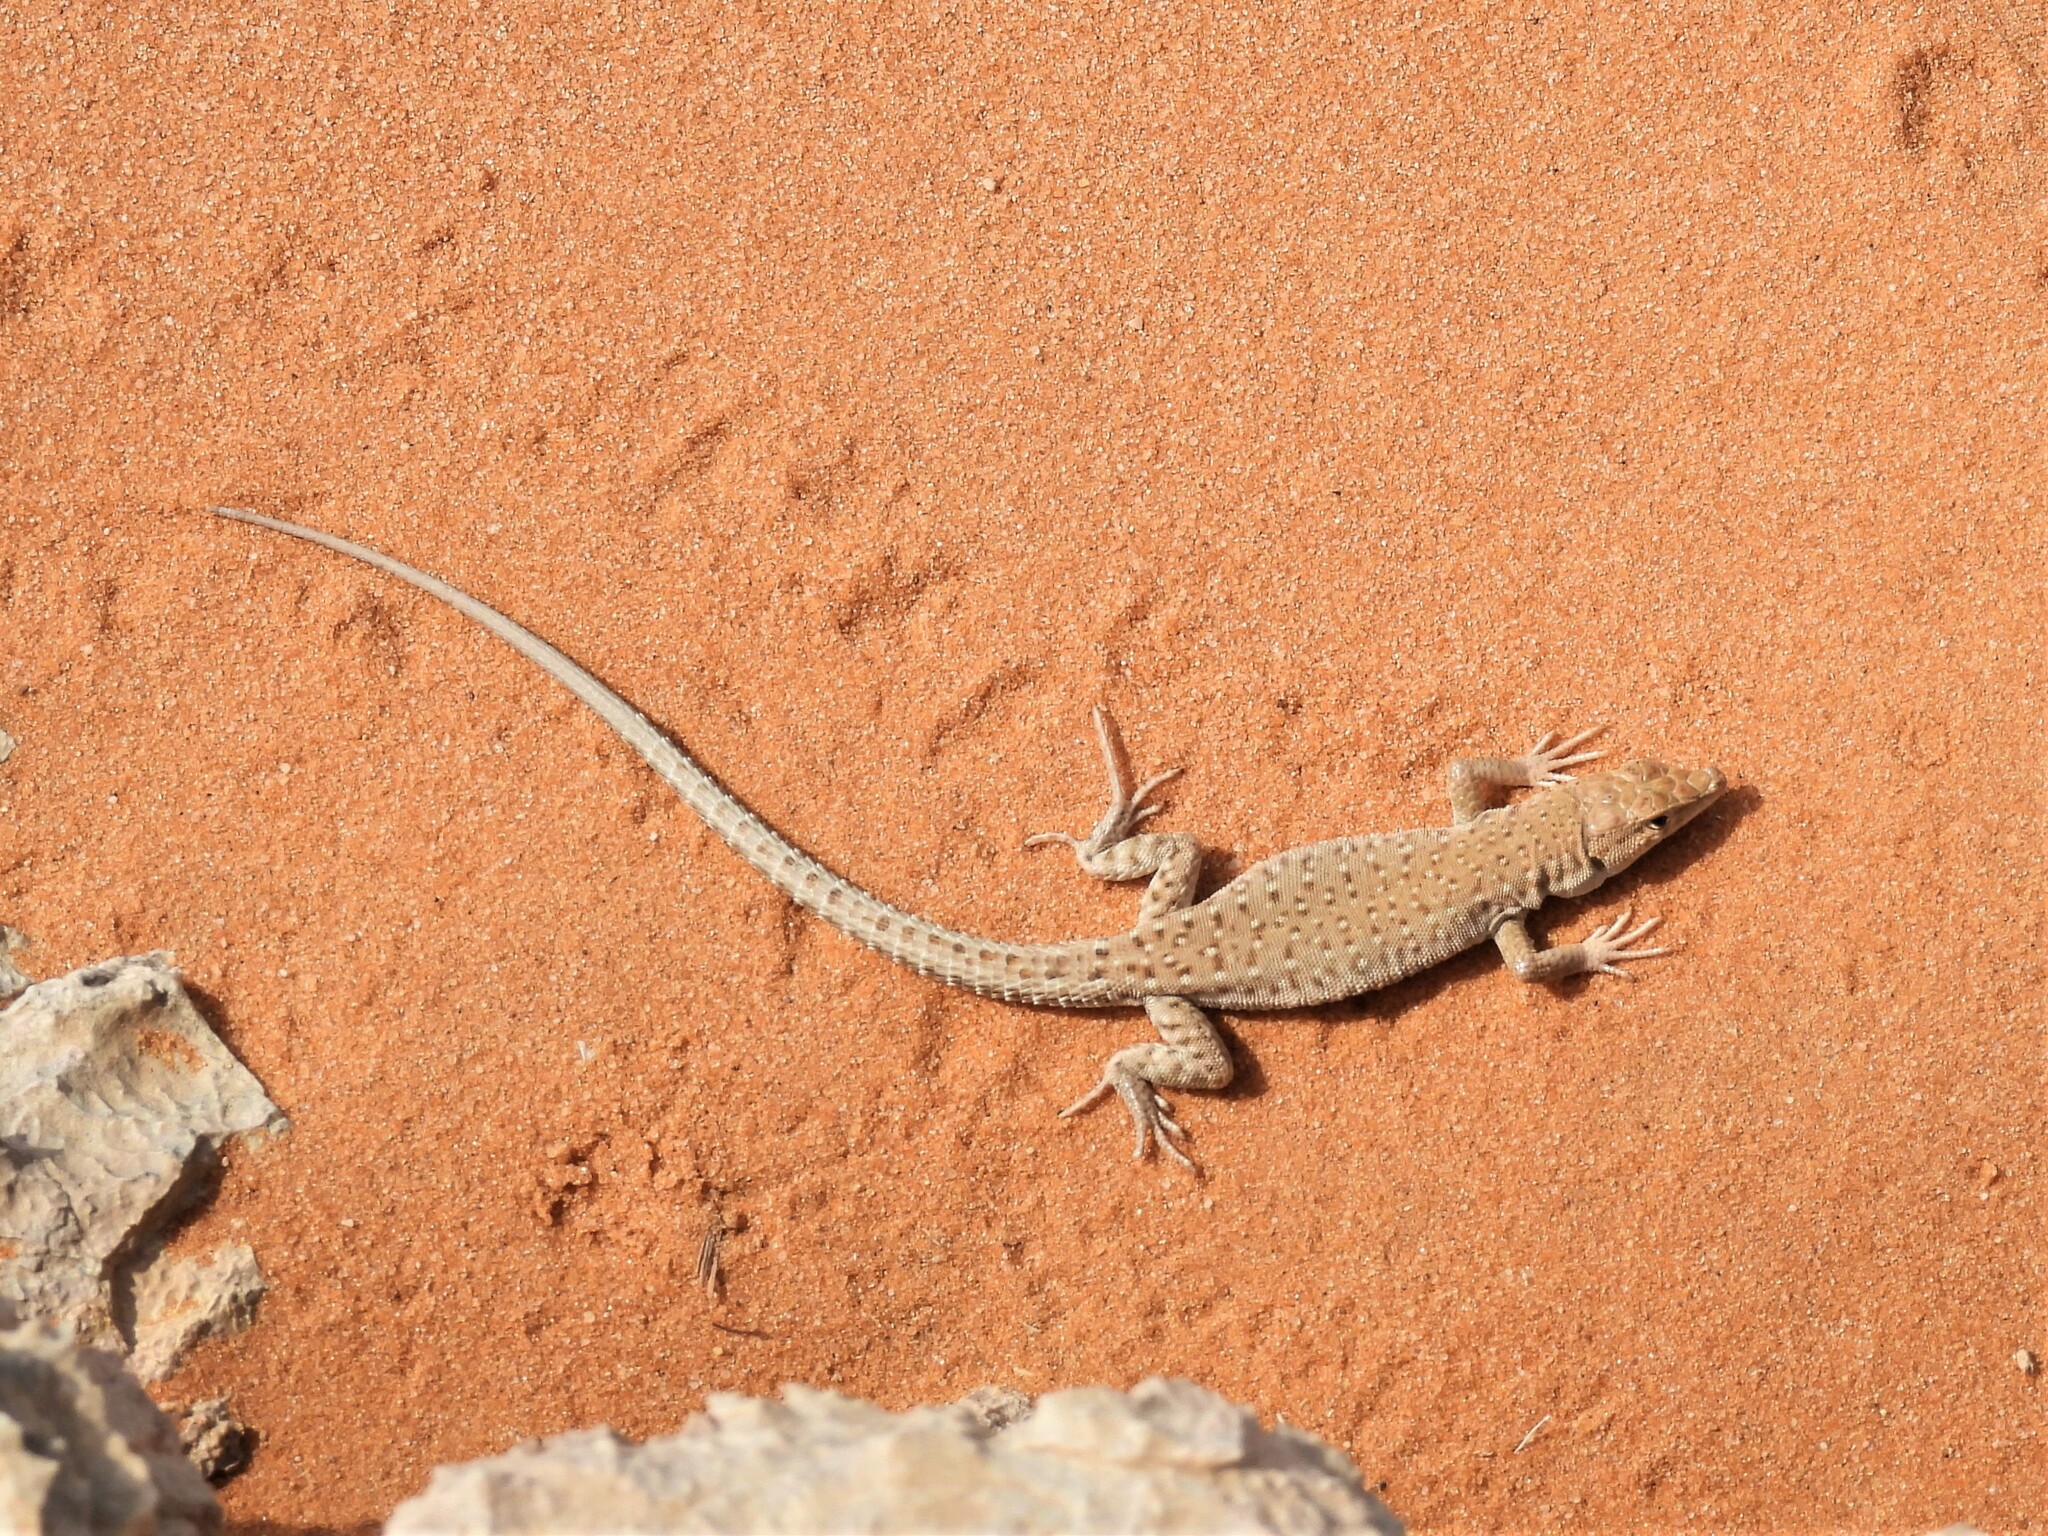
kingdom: Animalia
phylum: Chordata
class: Squamata
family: Lacertidae
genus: Mesalina
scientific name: Mesalina guttulata
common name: Desert lacerta
